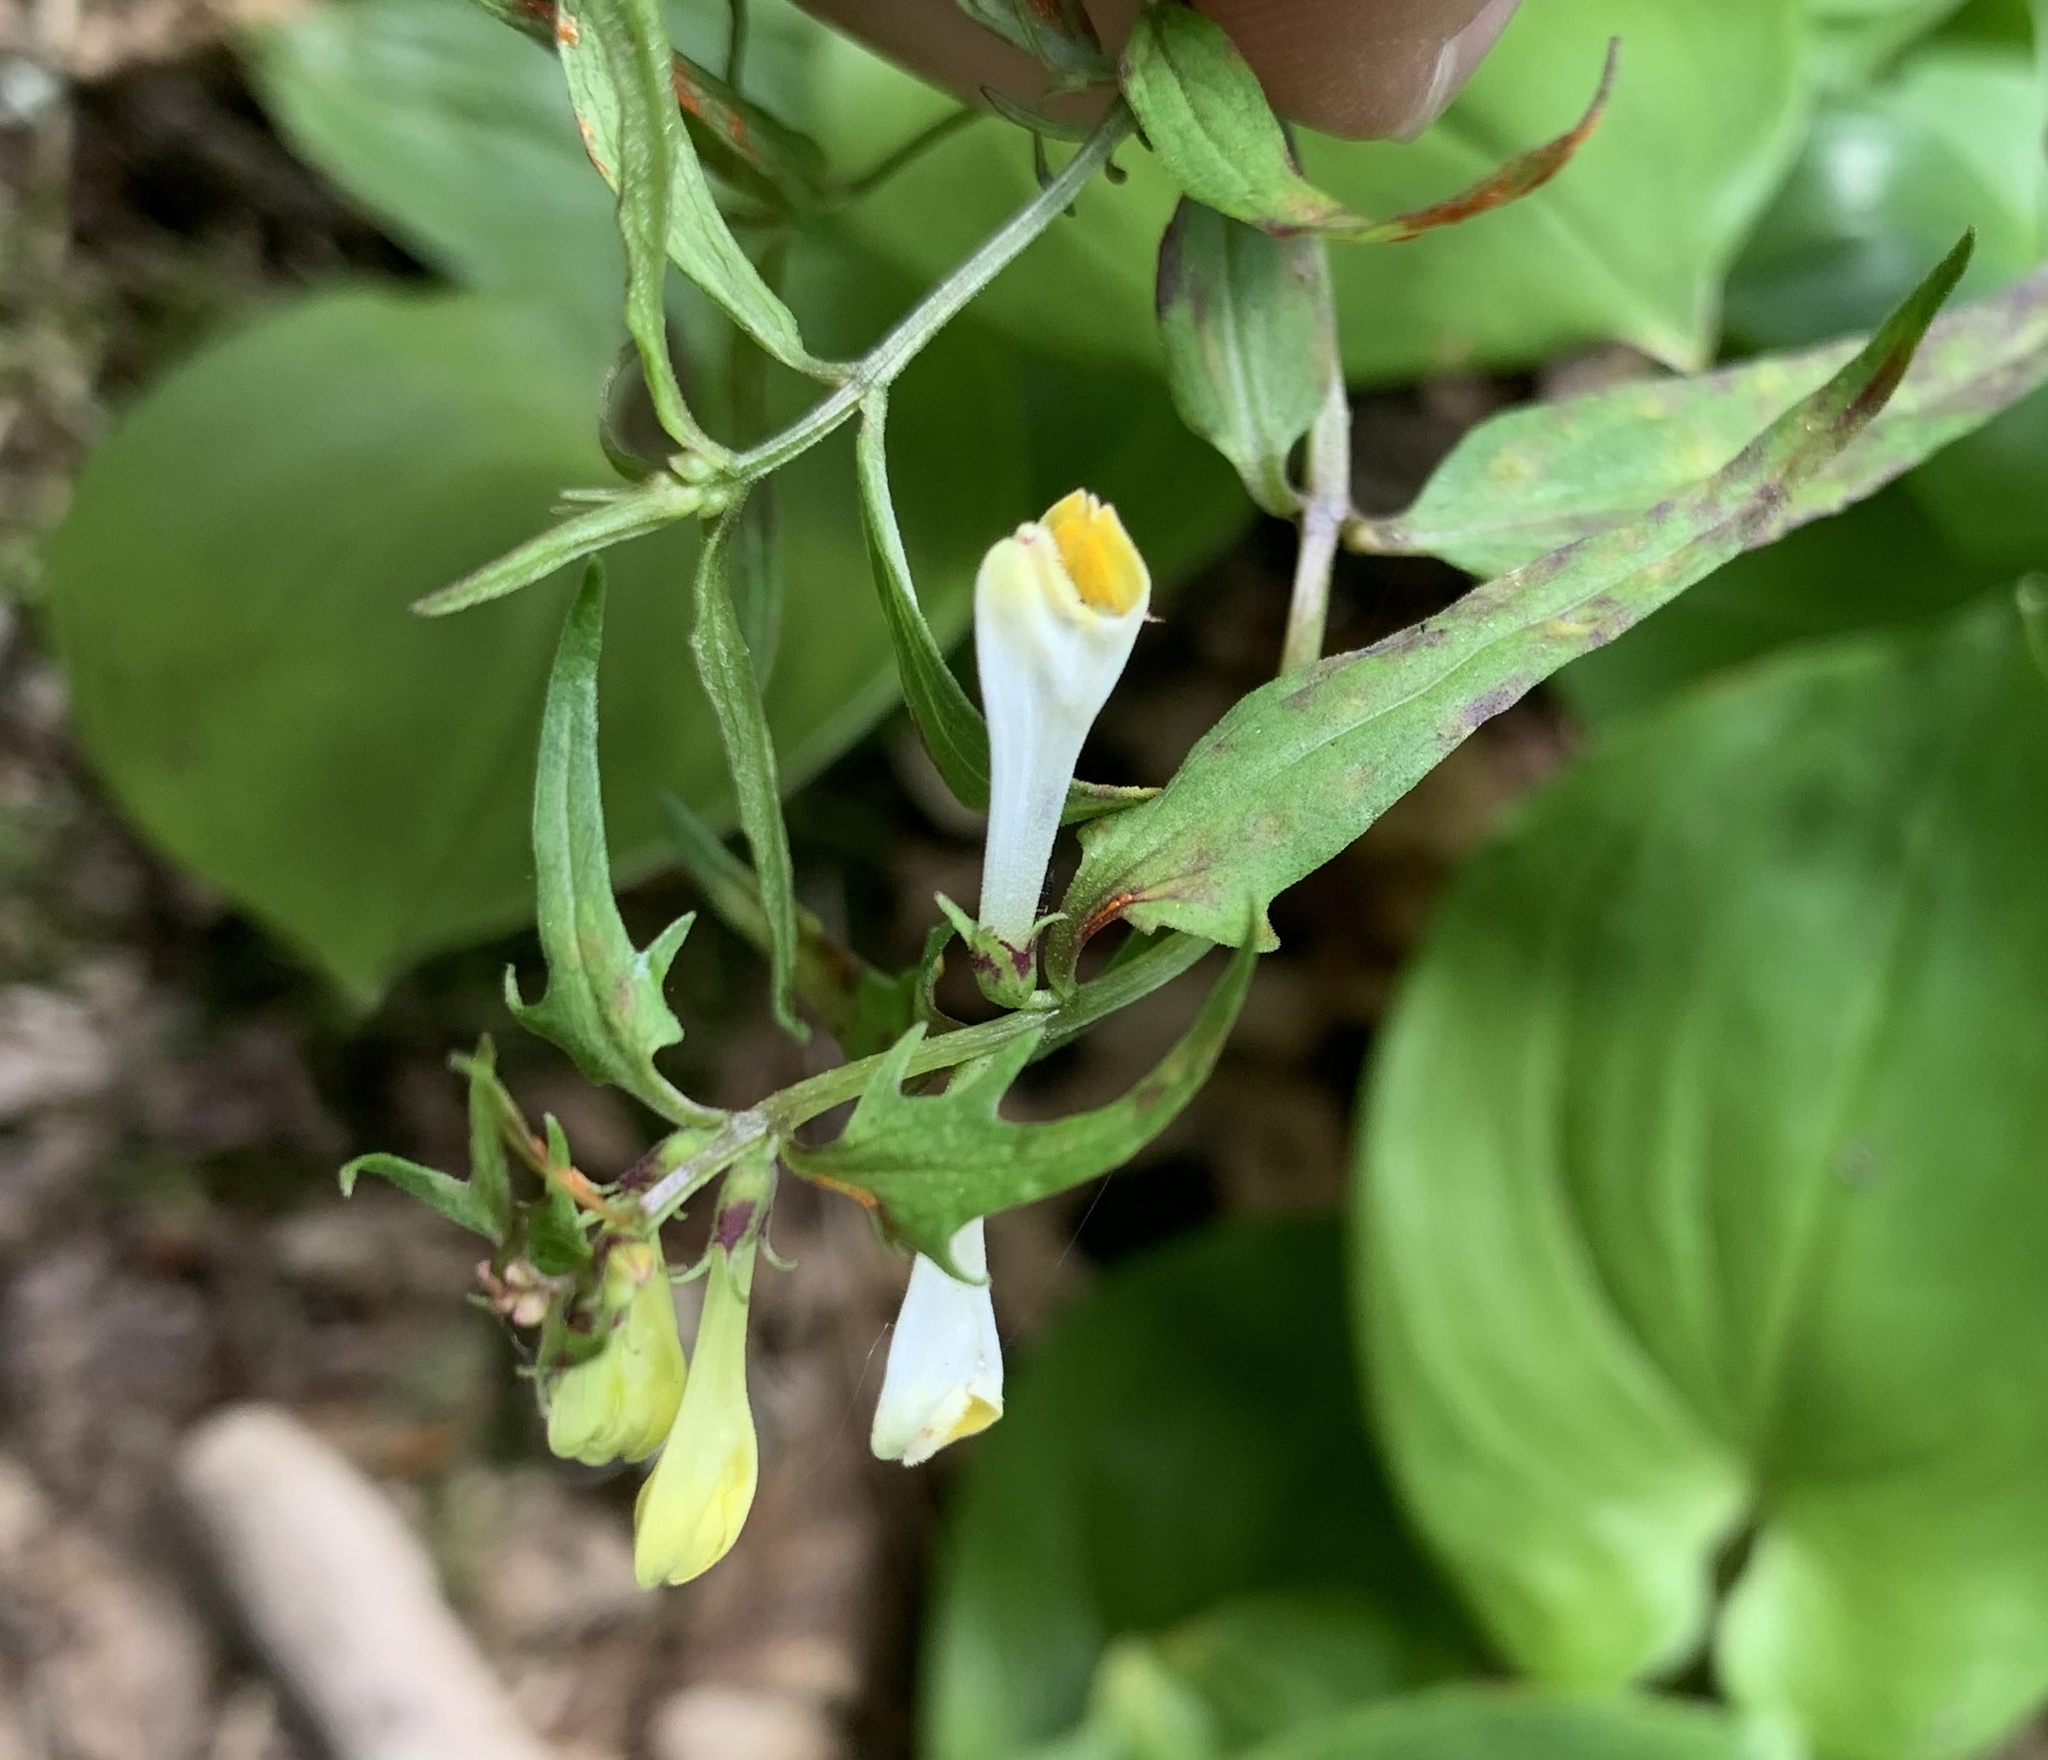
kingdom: Plantae
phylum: Tracheophyta
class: Magnoliopsida
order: Lamiales
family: Orobanchaceae
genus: Melampyrum
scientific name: Melampyrum pratense
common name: Common cow-wheat
